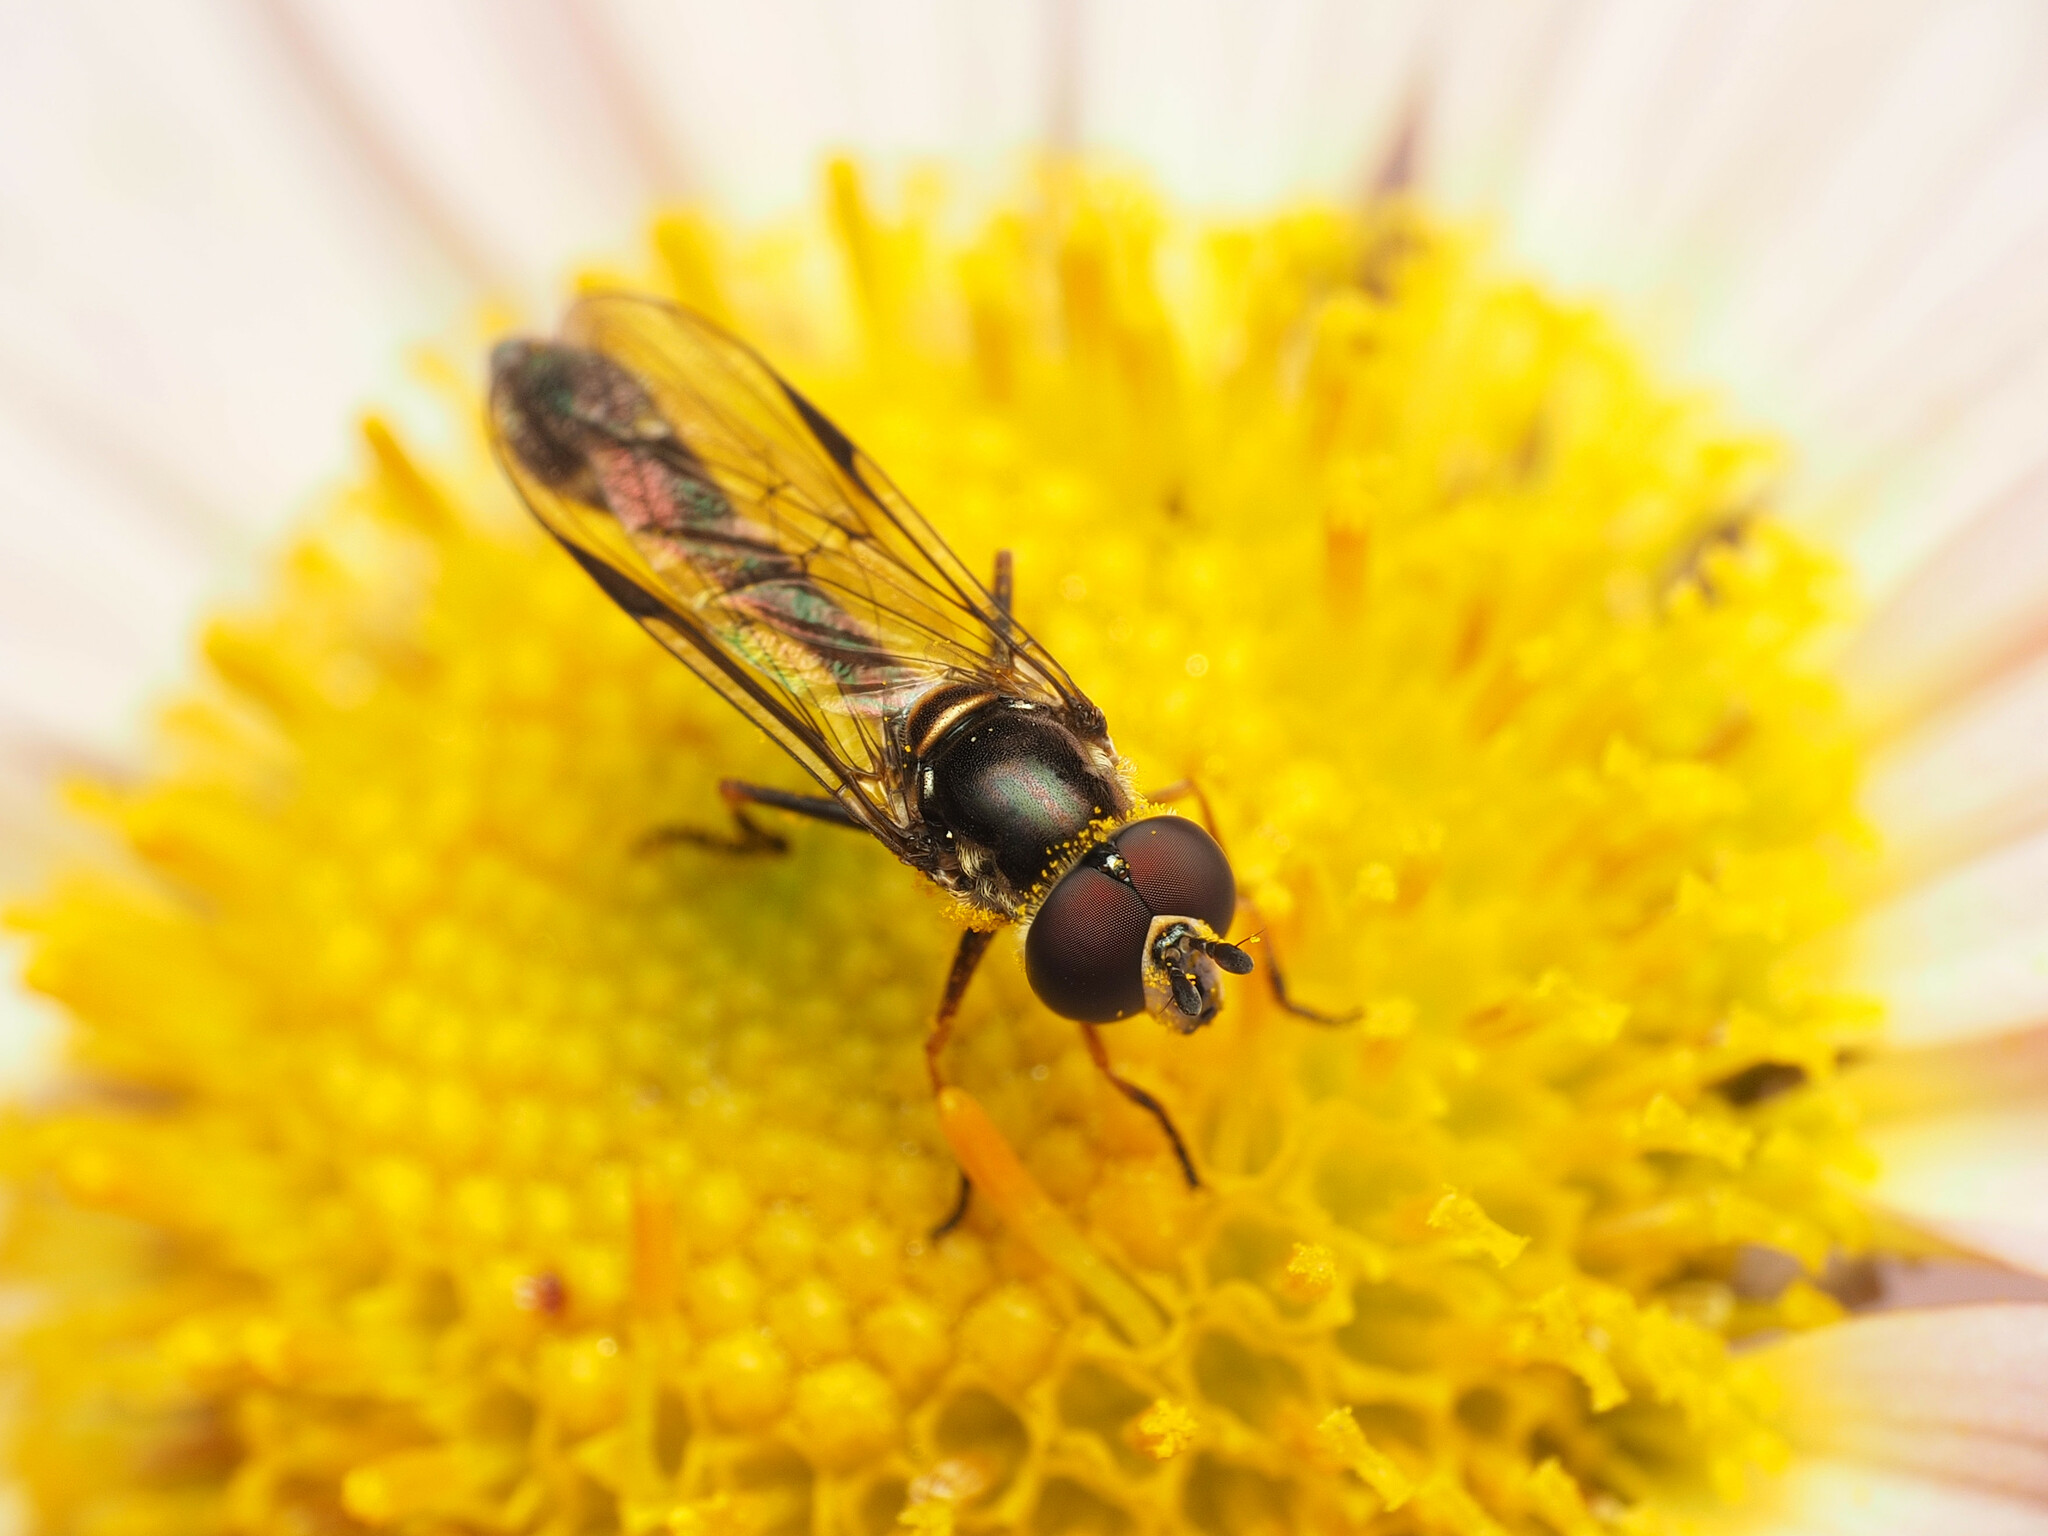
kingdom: Animalia
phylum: Arthropoda
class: Insecta
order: Diptera
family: Syrphidae
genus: Dioprosopa
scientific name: Dioprosopa clavatus
